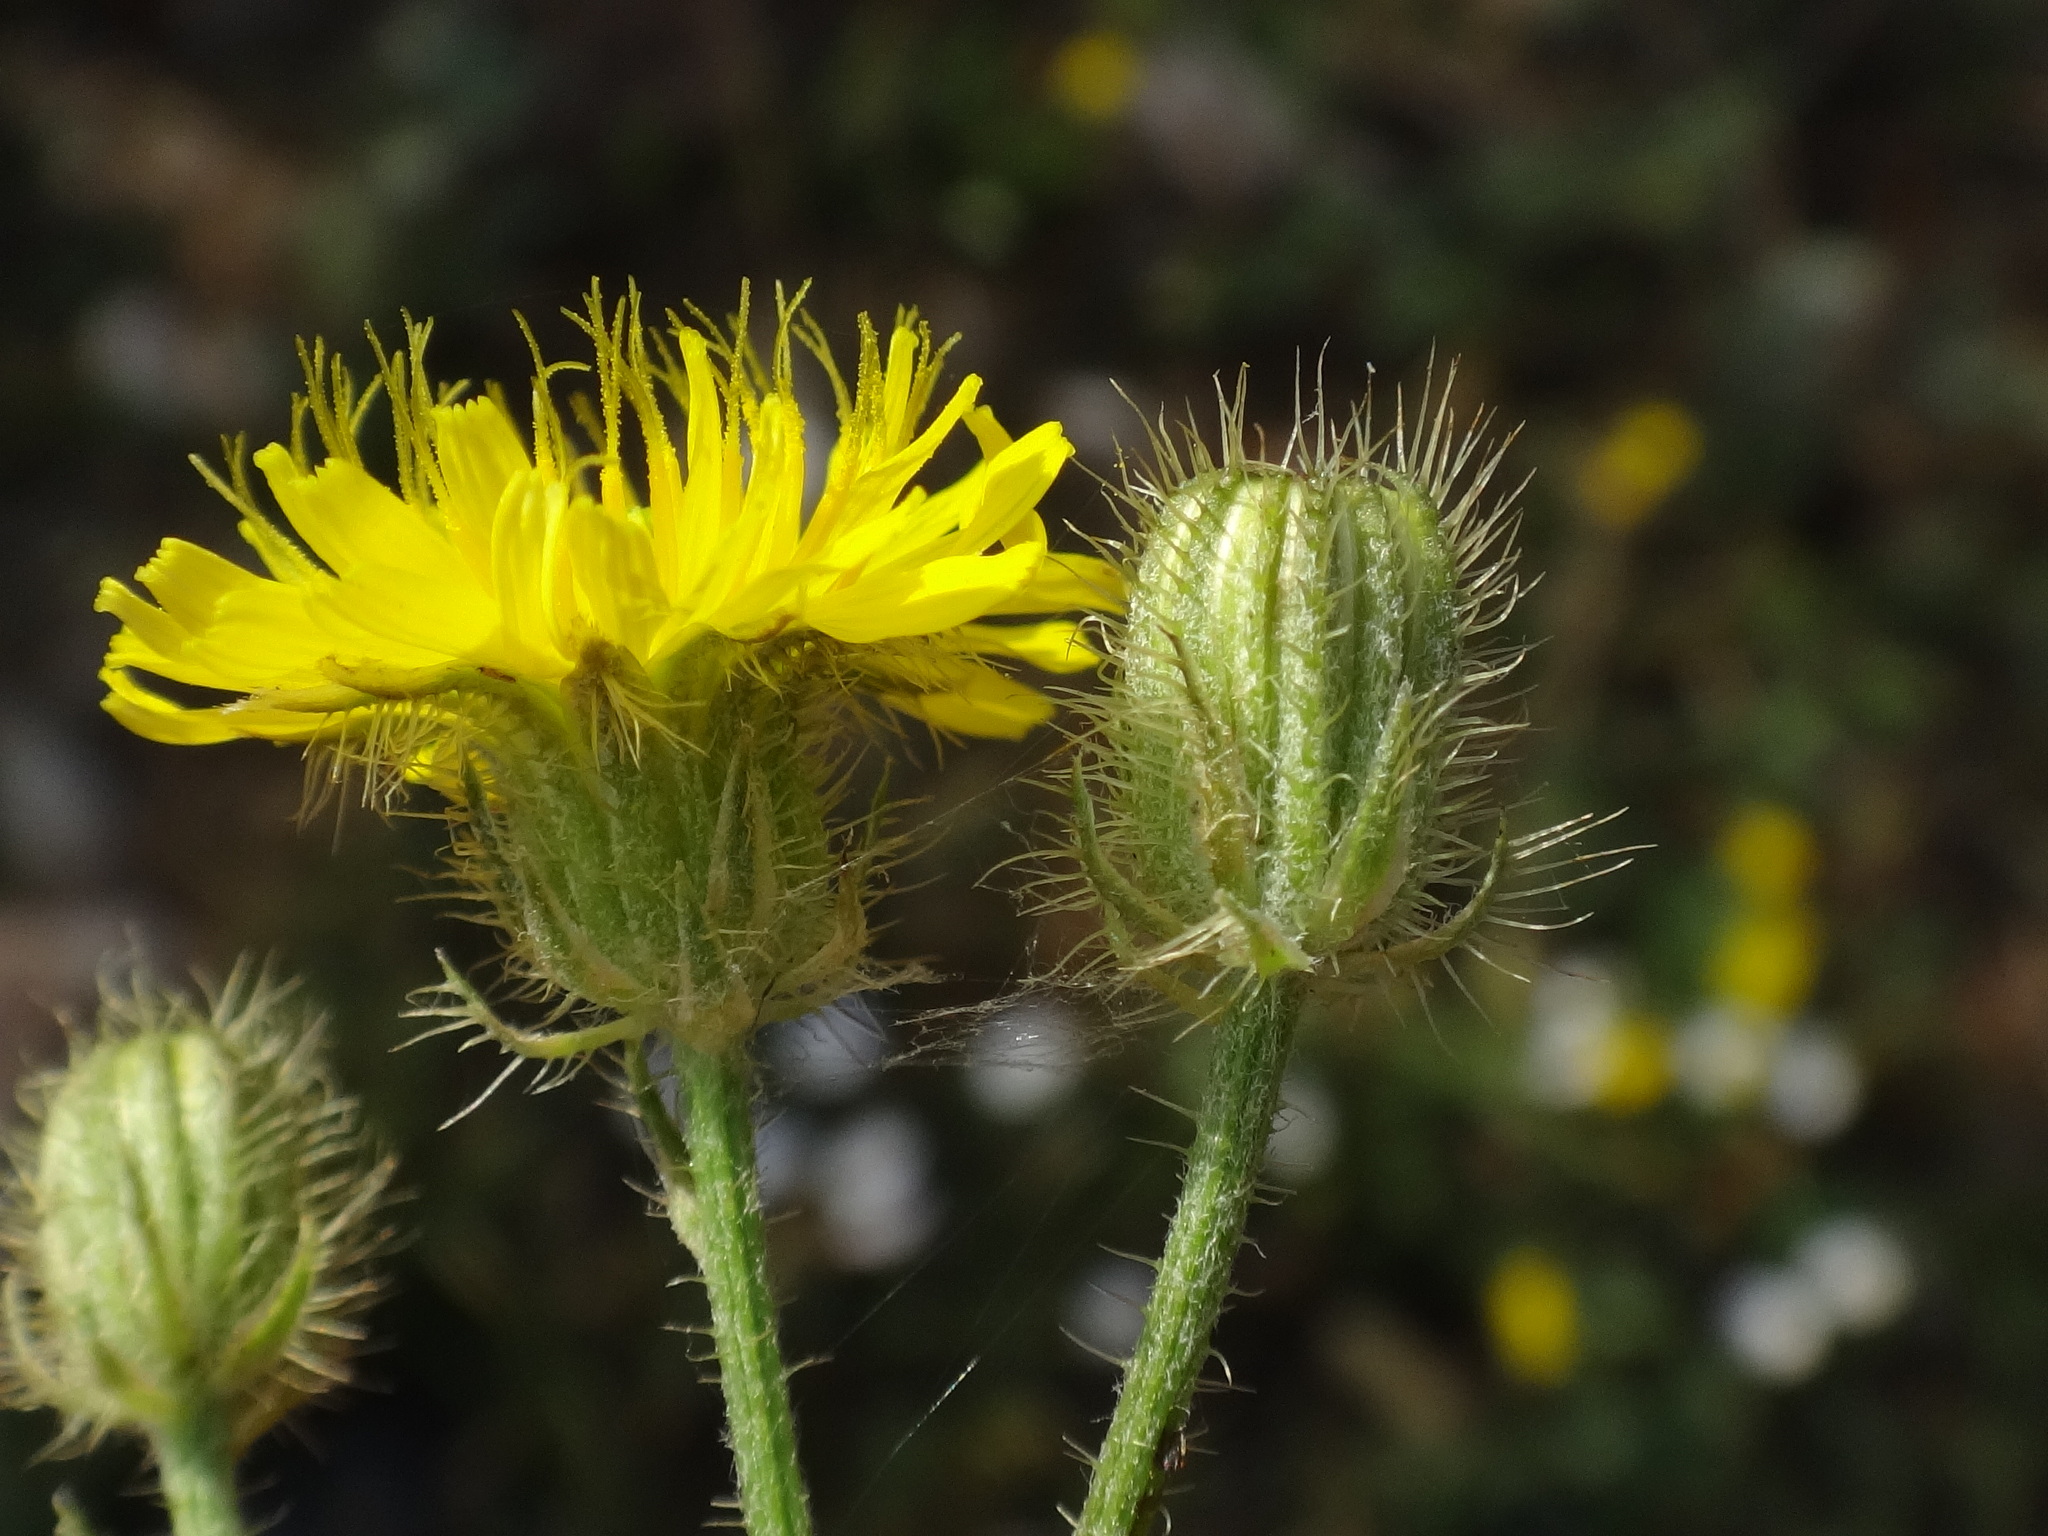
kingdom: Plantae
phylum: Tracheophyta
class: Magnoliopsida
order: Asterales
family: Asteraceae
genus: Crepis
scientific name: Crepis setosa
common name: Bristly hawk's-beard
